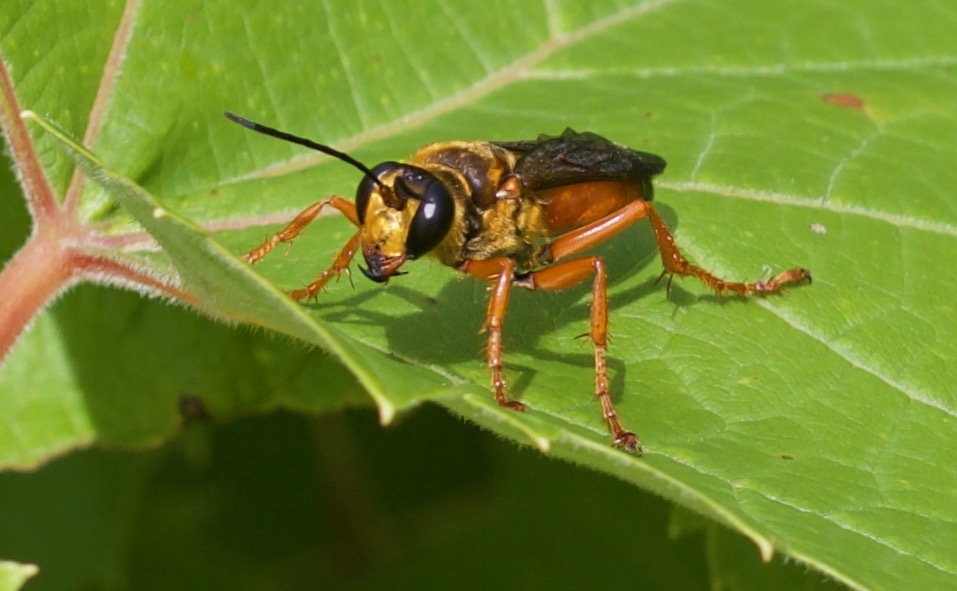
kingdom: Animalia
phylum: Arthropoda
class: Insecta
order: Hymenoptera
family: Sphecidae
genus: Sphex
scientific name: Sphex ichneumoneus
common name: Great golden digger wasp
